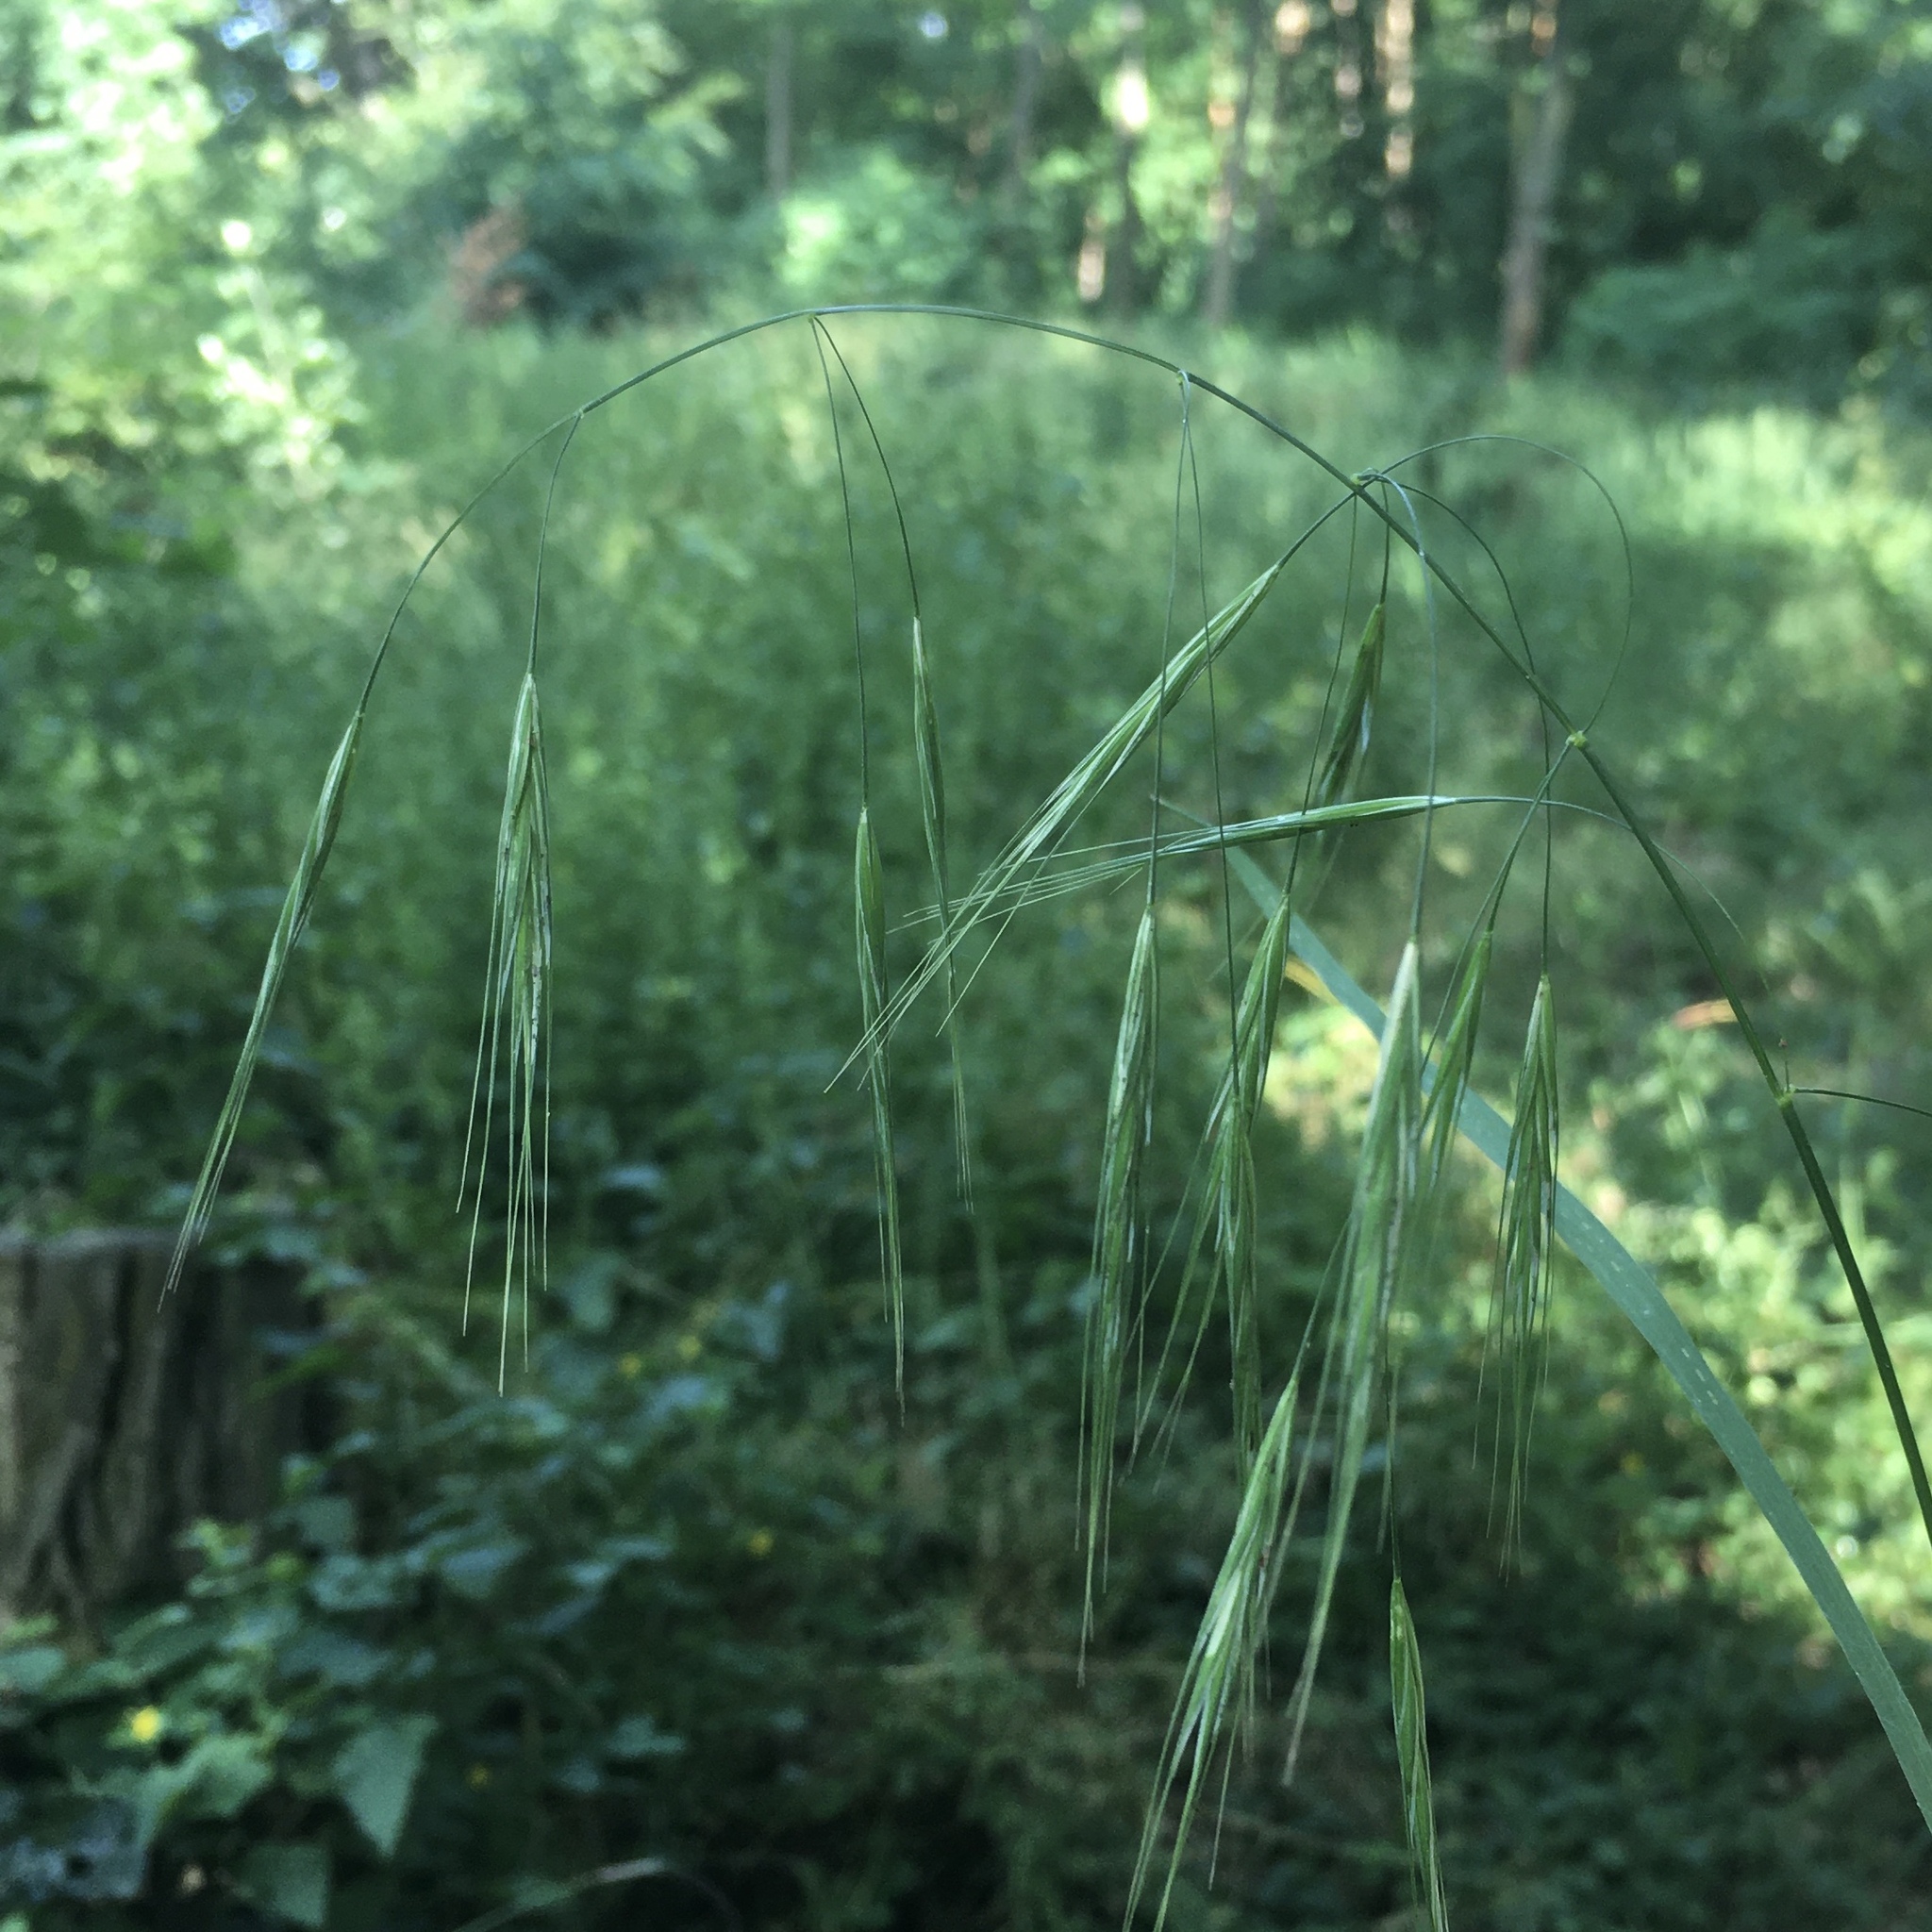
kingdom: Plantae
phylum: Tracheophyta
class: Liliopsida
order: Poales
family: Poaceae
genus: Bromus
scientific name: Bromus sterilis
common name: Poverty brome
